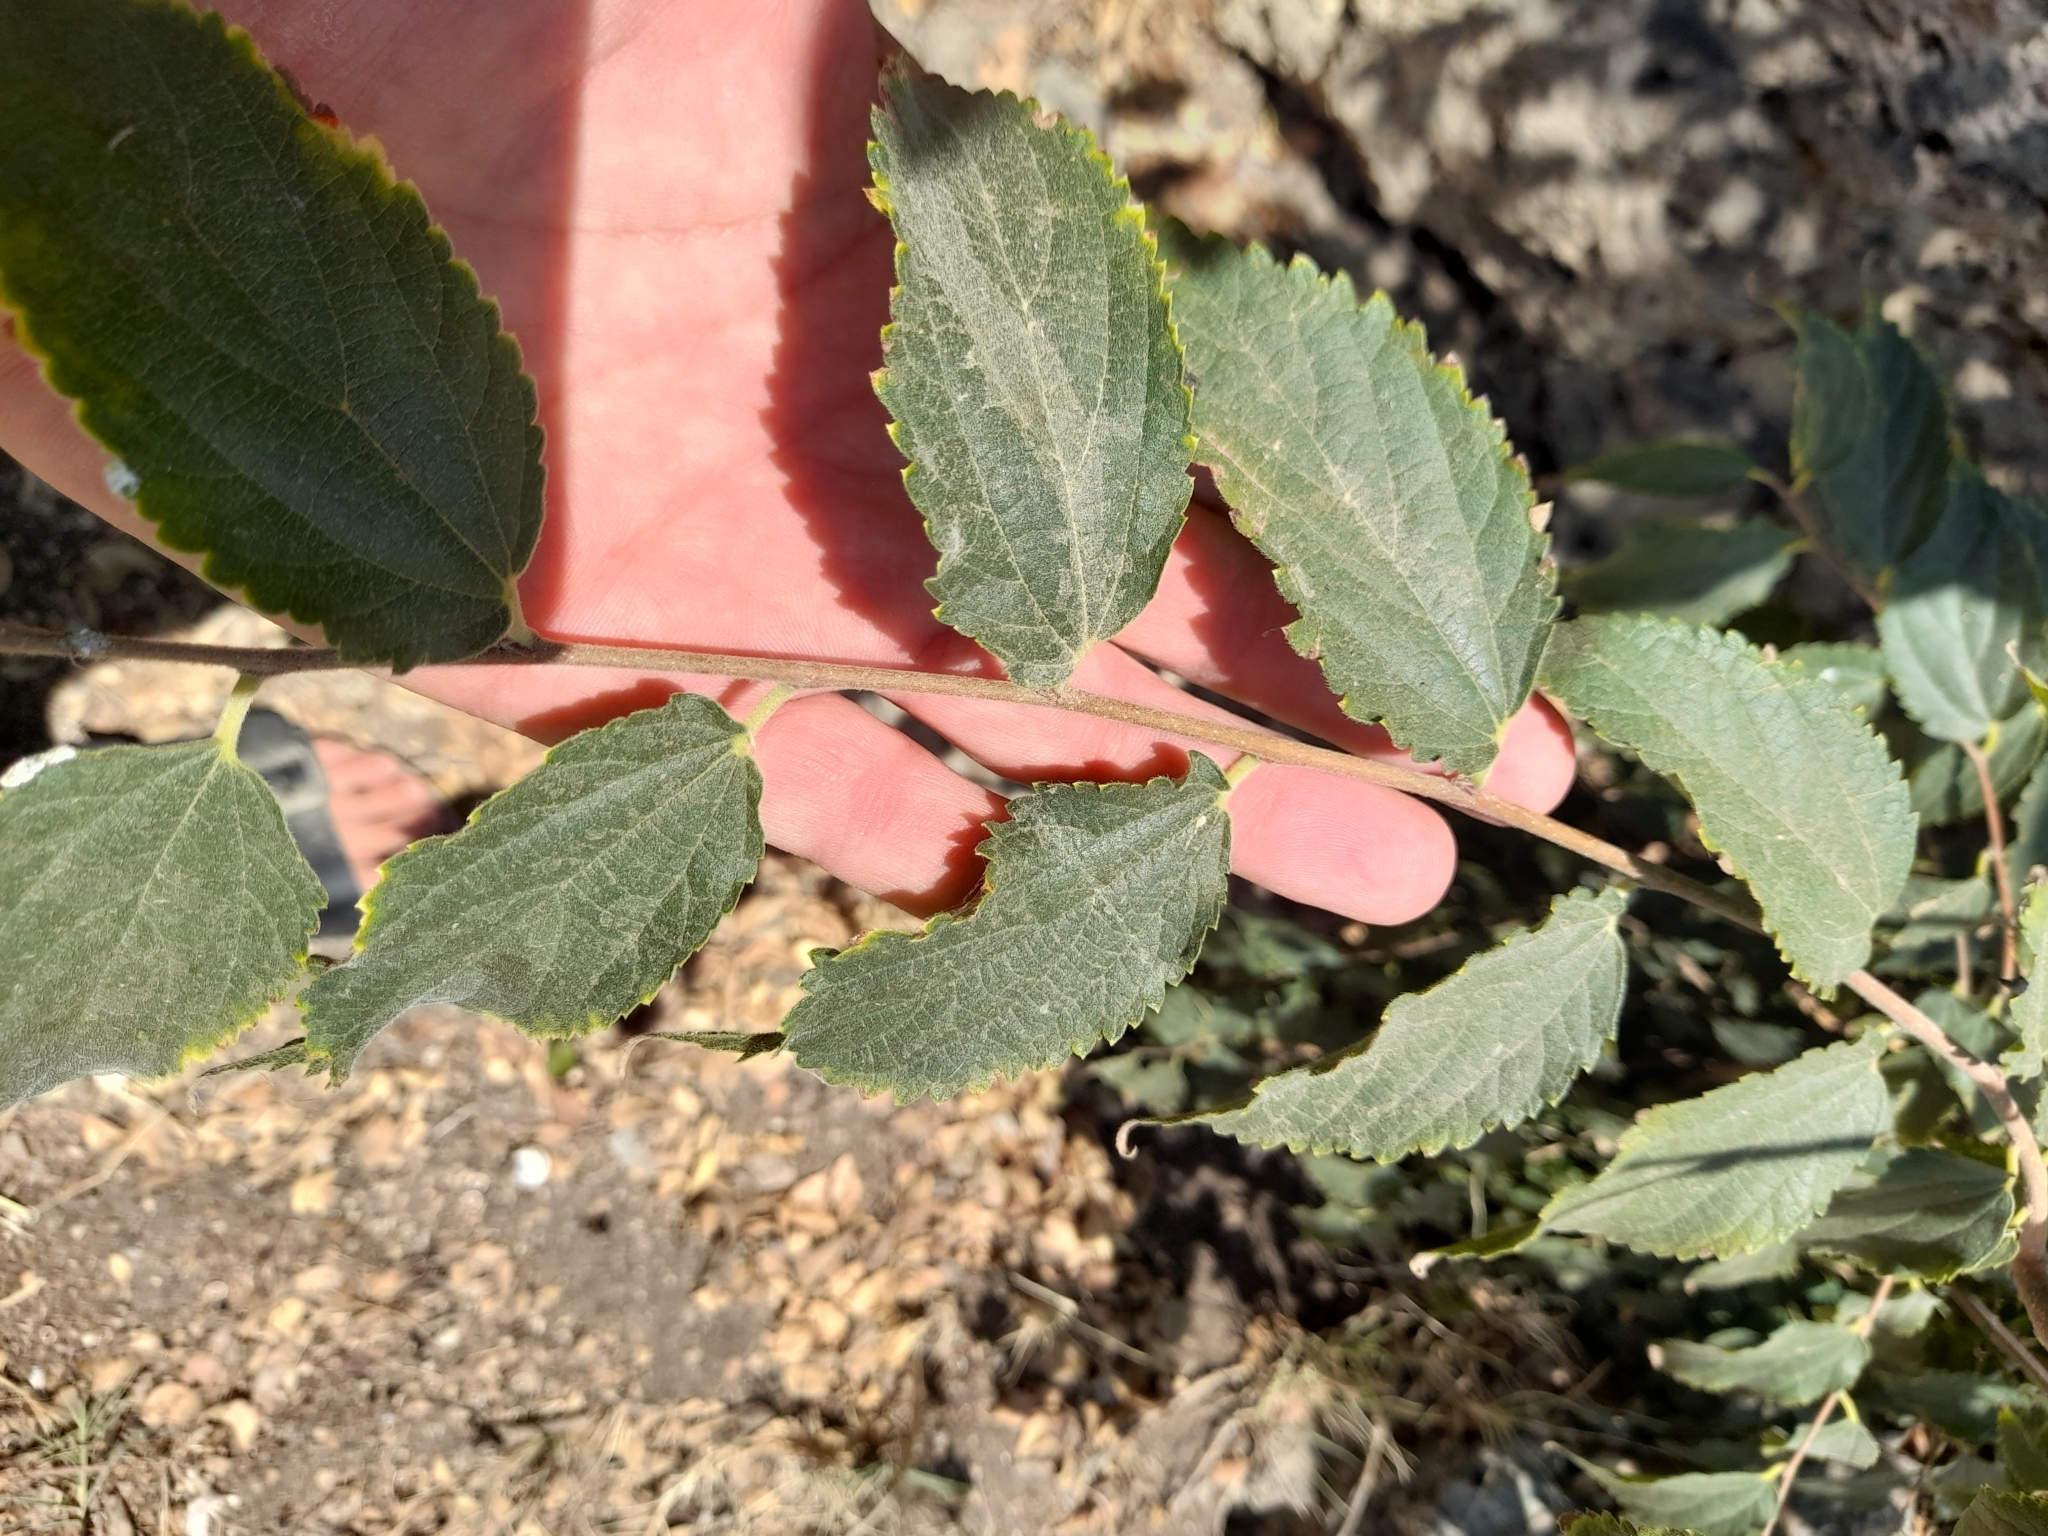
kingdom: Plantae
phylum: Tracheophyta
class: Magnoliopsida
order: Rosales
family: Cannabaceae
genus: Celtis
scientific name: Celtis australis
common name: European hackberry
